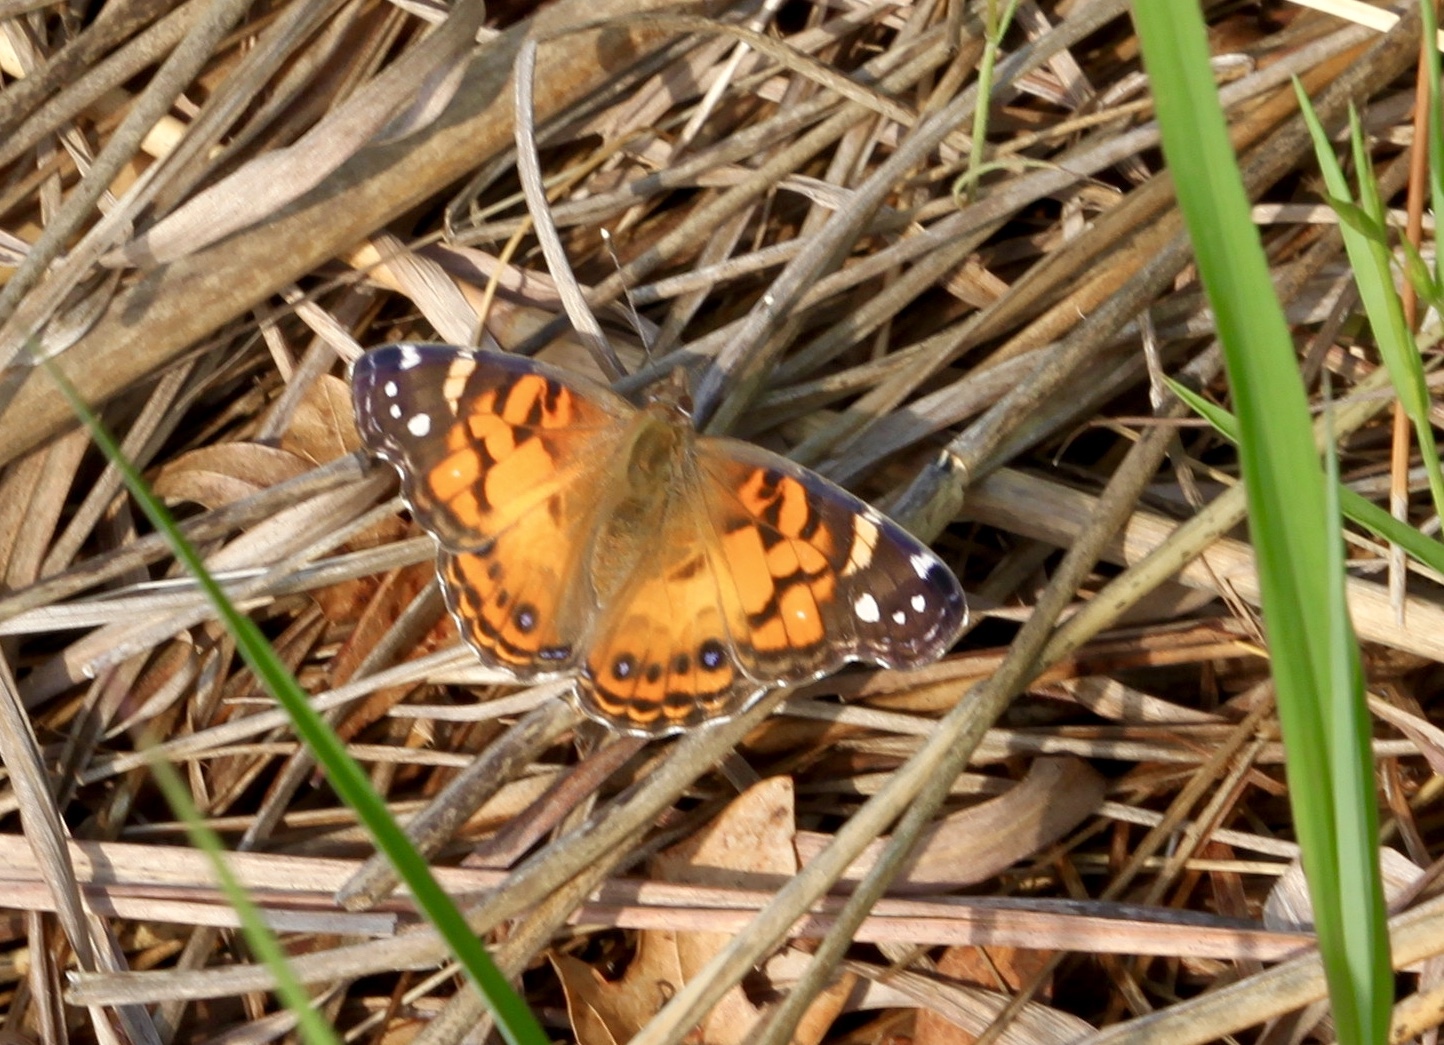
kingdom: Animalia
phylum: Arthropoda
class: Insecta
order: Lepidoptera
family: Nymphalidae
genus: Vanessa
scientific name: Vanessa virginiensis
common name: American lady
